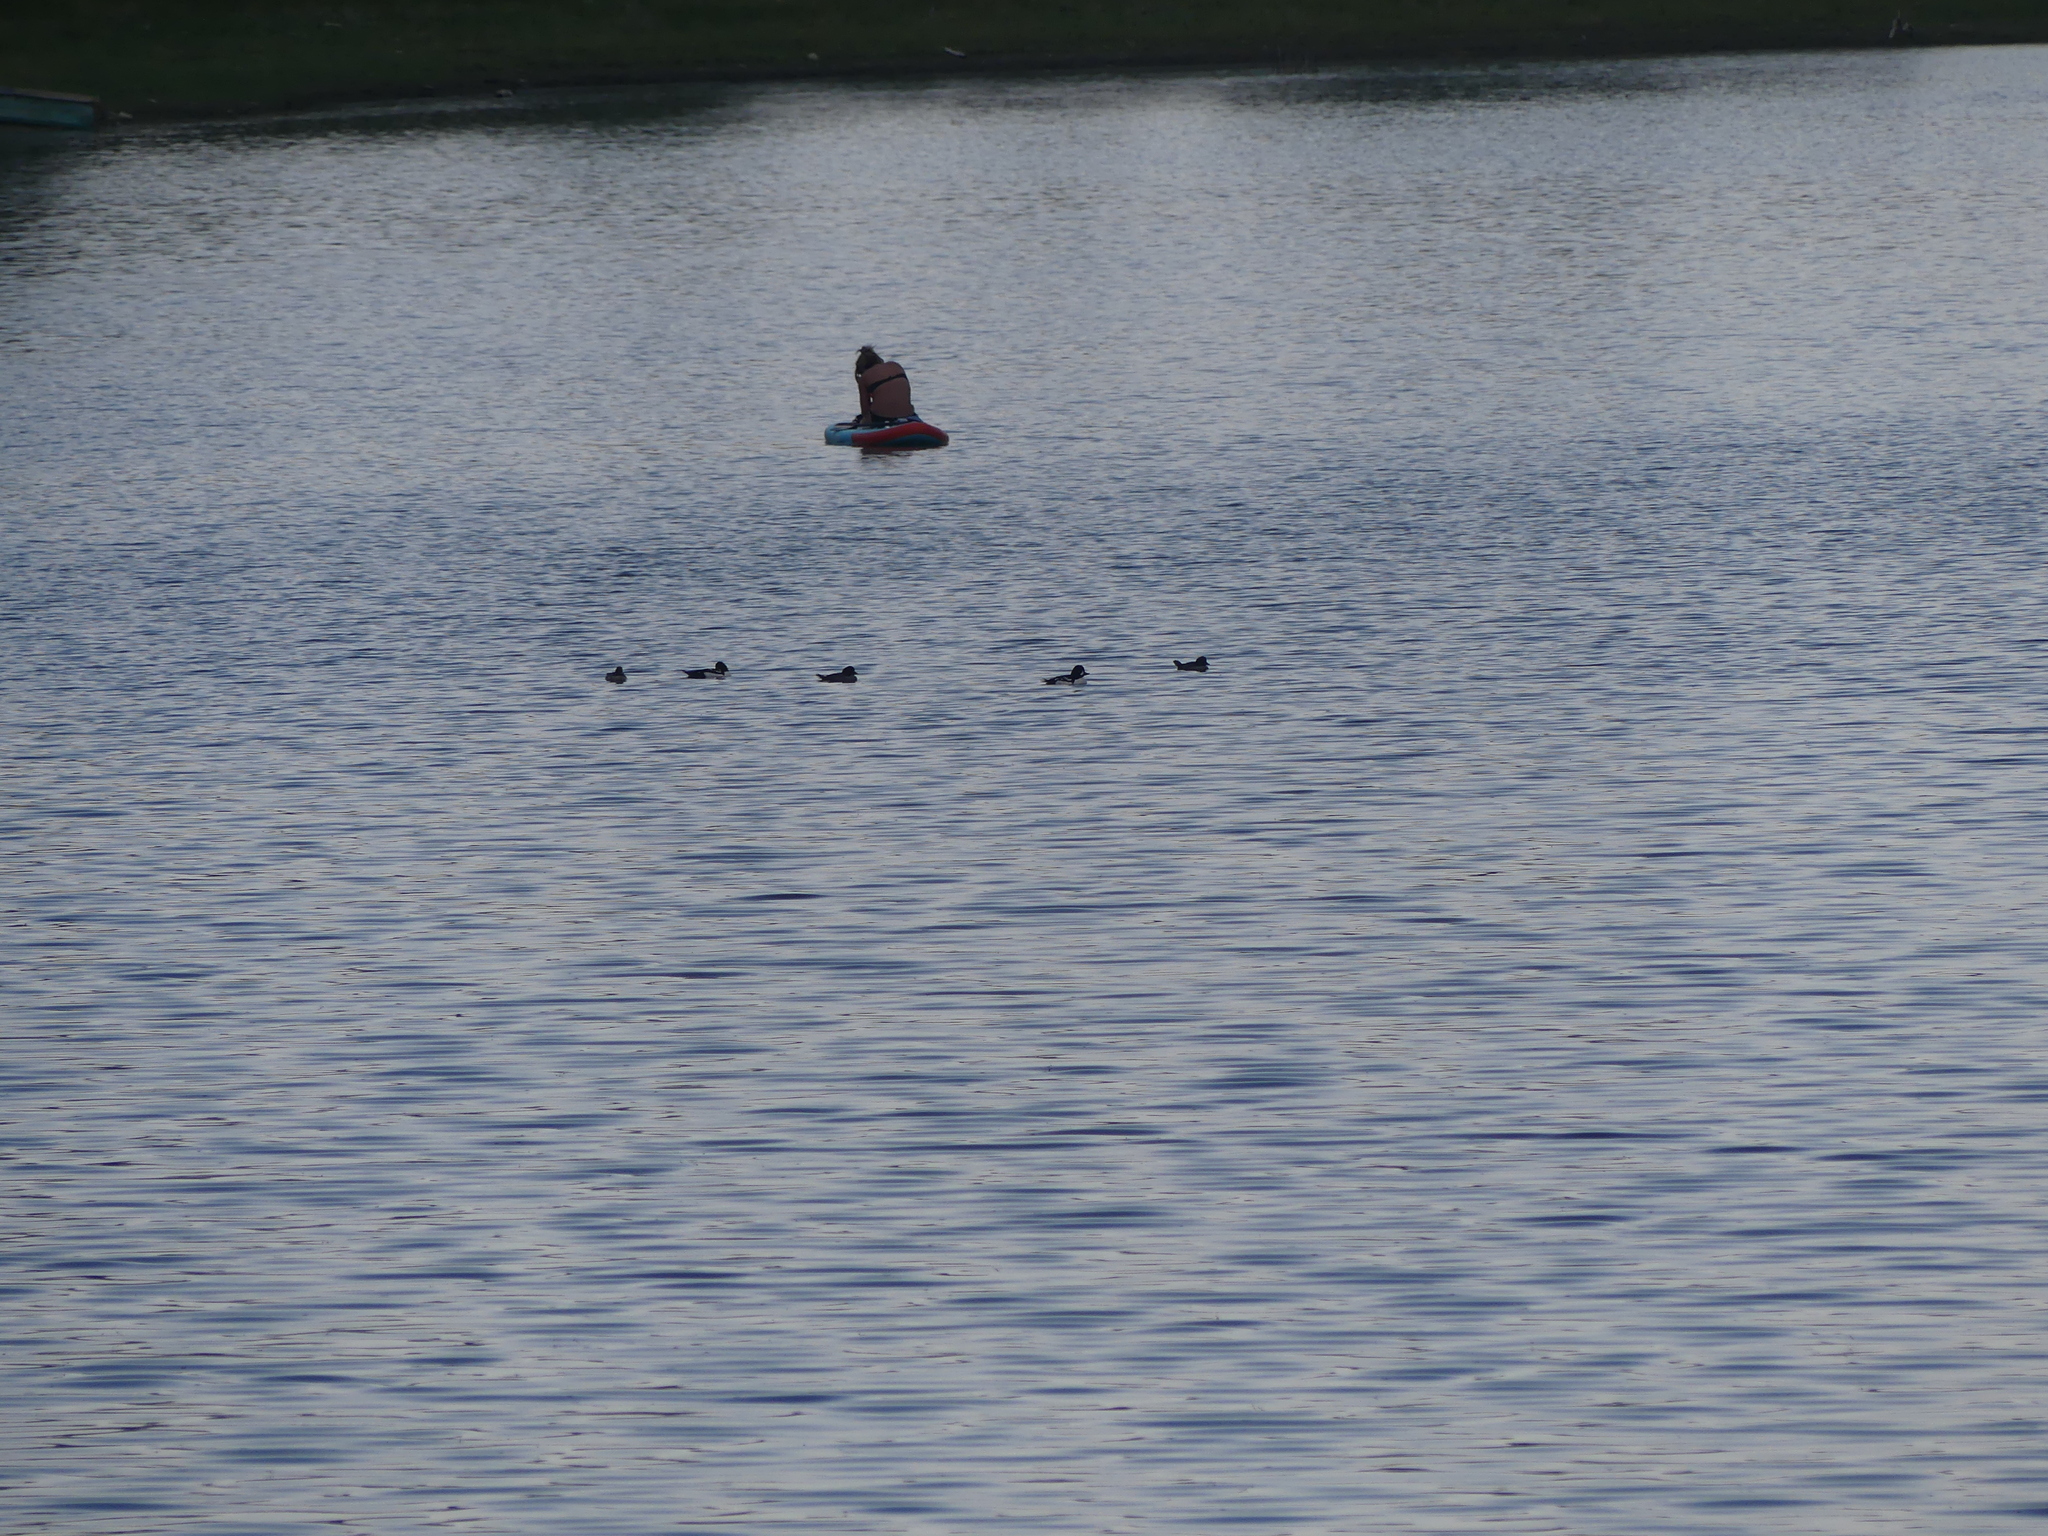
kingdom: Animalia
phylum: Chordata
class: Aves
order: Anseriformes
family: Anatidae
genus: Bucephala
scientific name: Bucephala islandica
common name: Barrow's goldeneye
